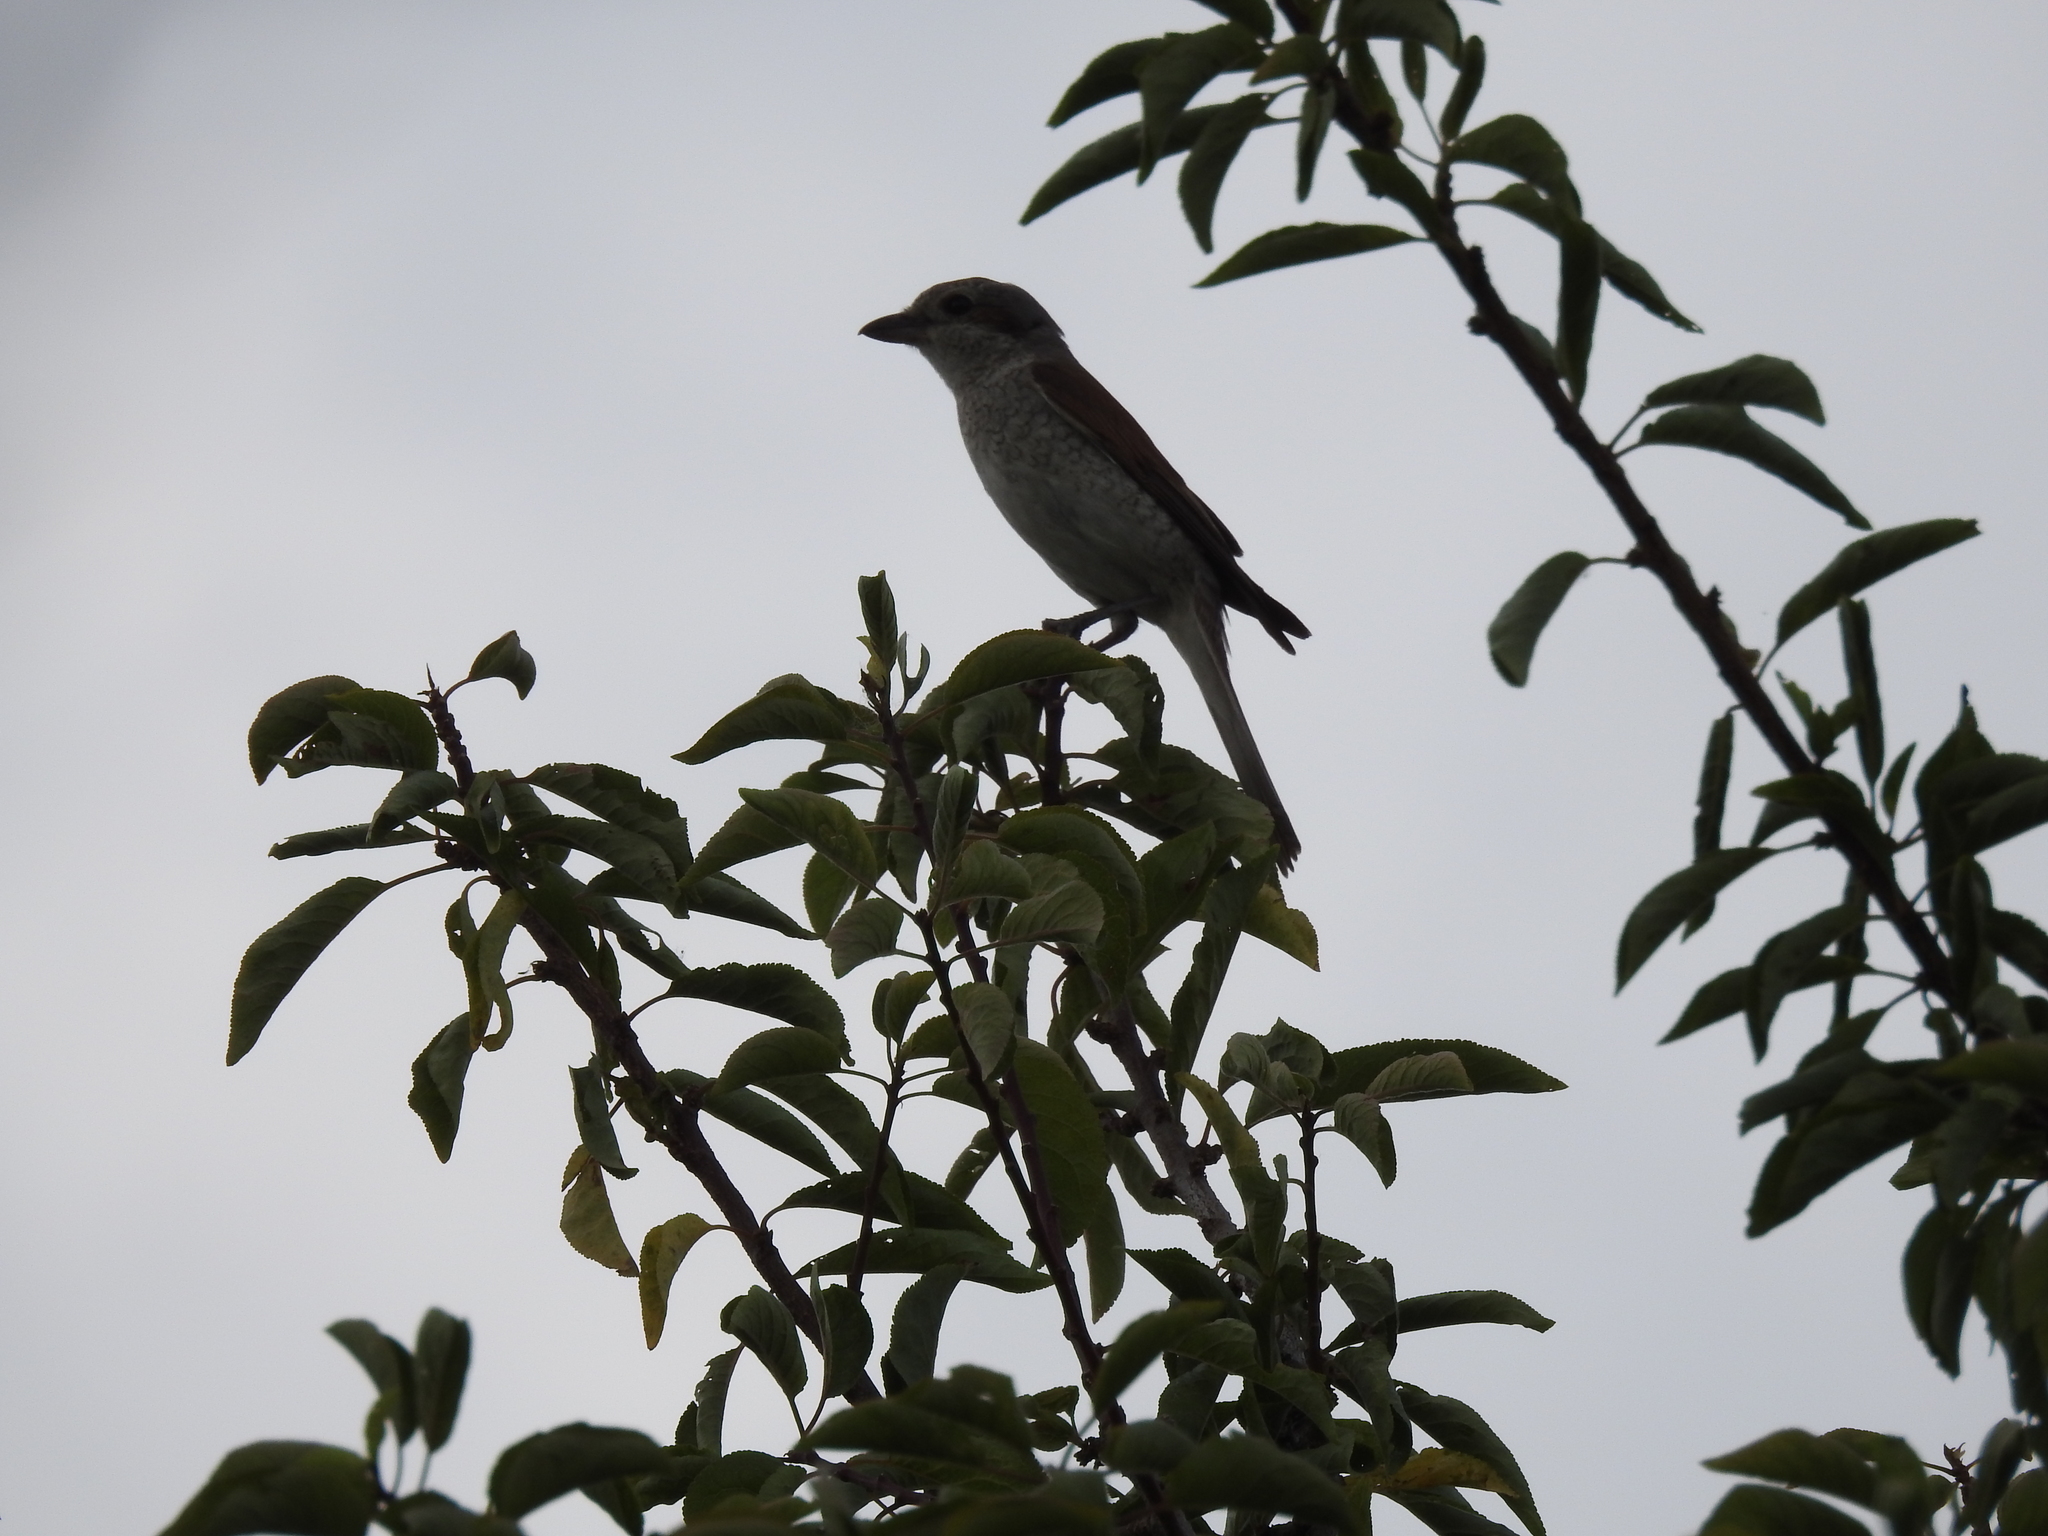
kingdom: Animalia
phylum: Chordata
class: Aves
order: Passeriformes
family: Laniidae
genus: Lanius
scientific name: Lanius collurio
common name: Red-backed shrike
